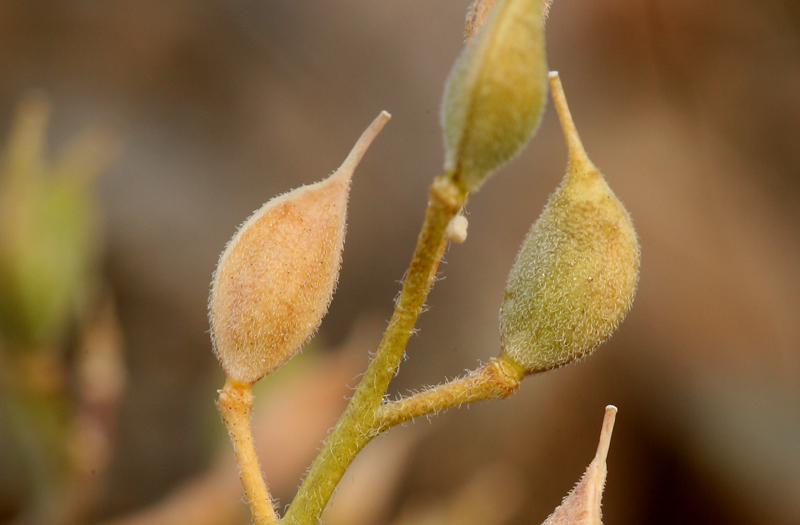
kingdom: Plantae
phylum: Tracheophyta
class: Magnoliopsida
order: Brassicales
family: Brassicaceae
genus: Cusickiella
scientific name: Cusickiella douglasii
